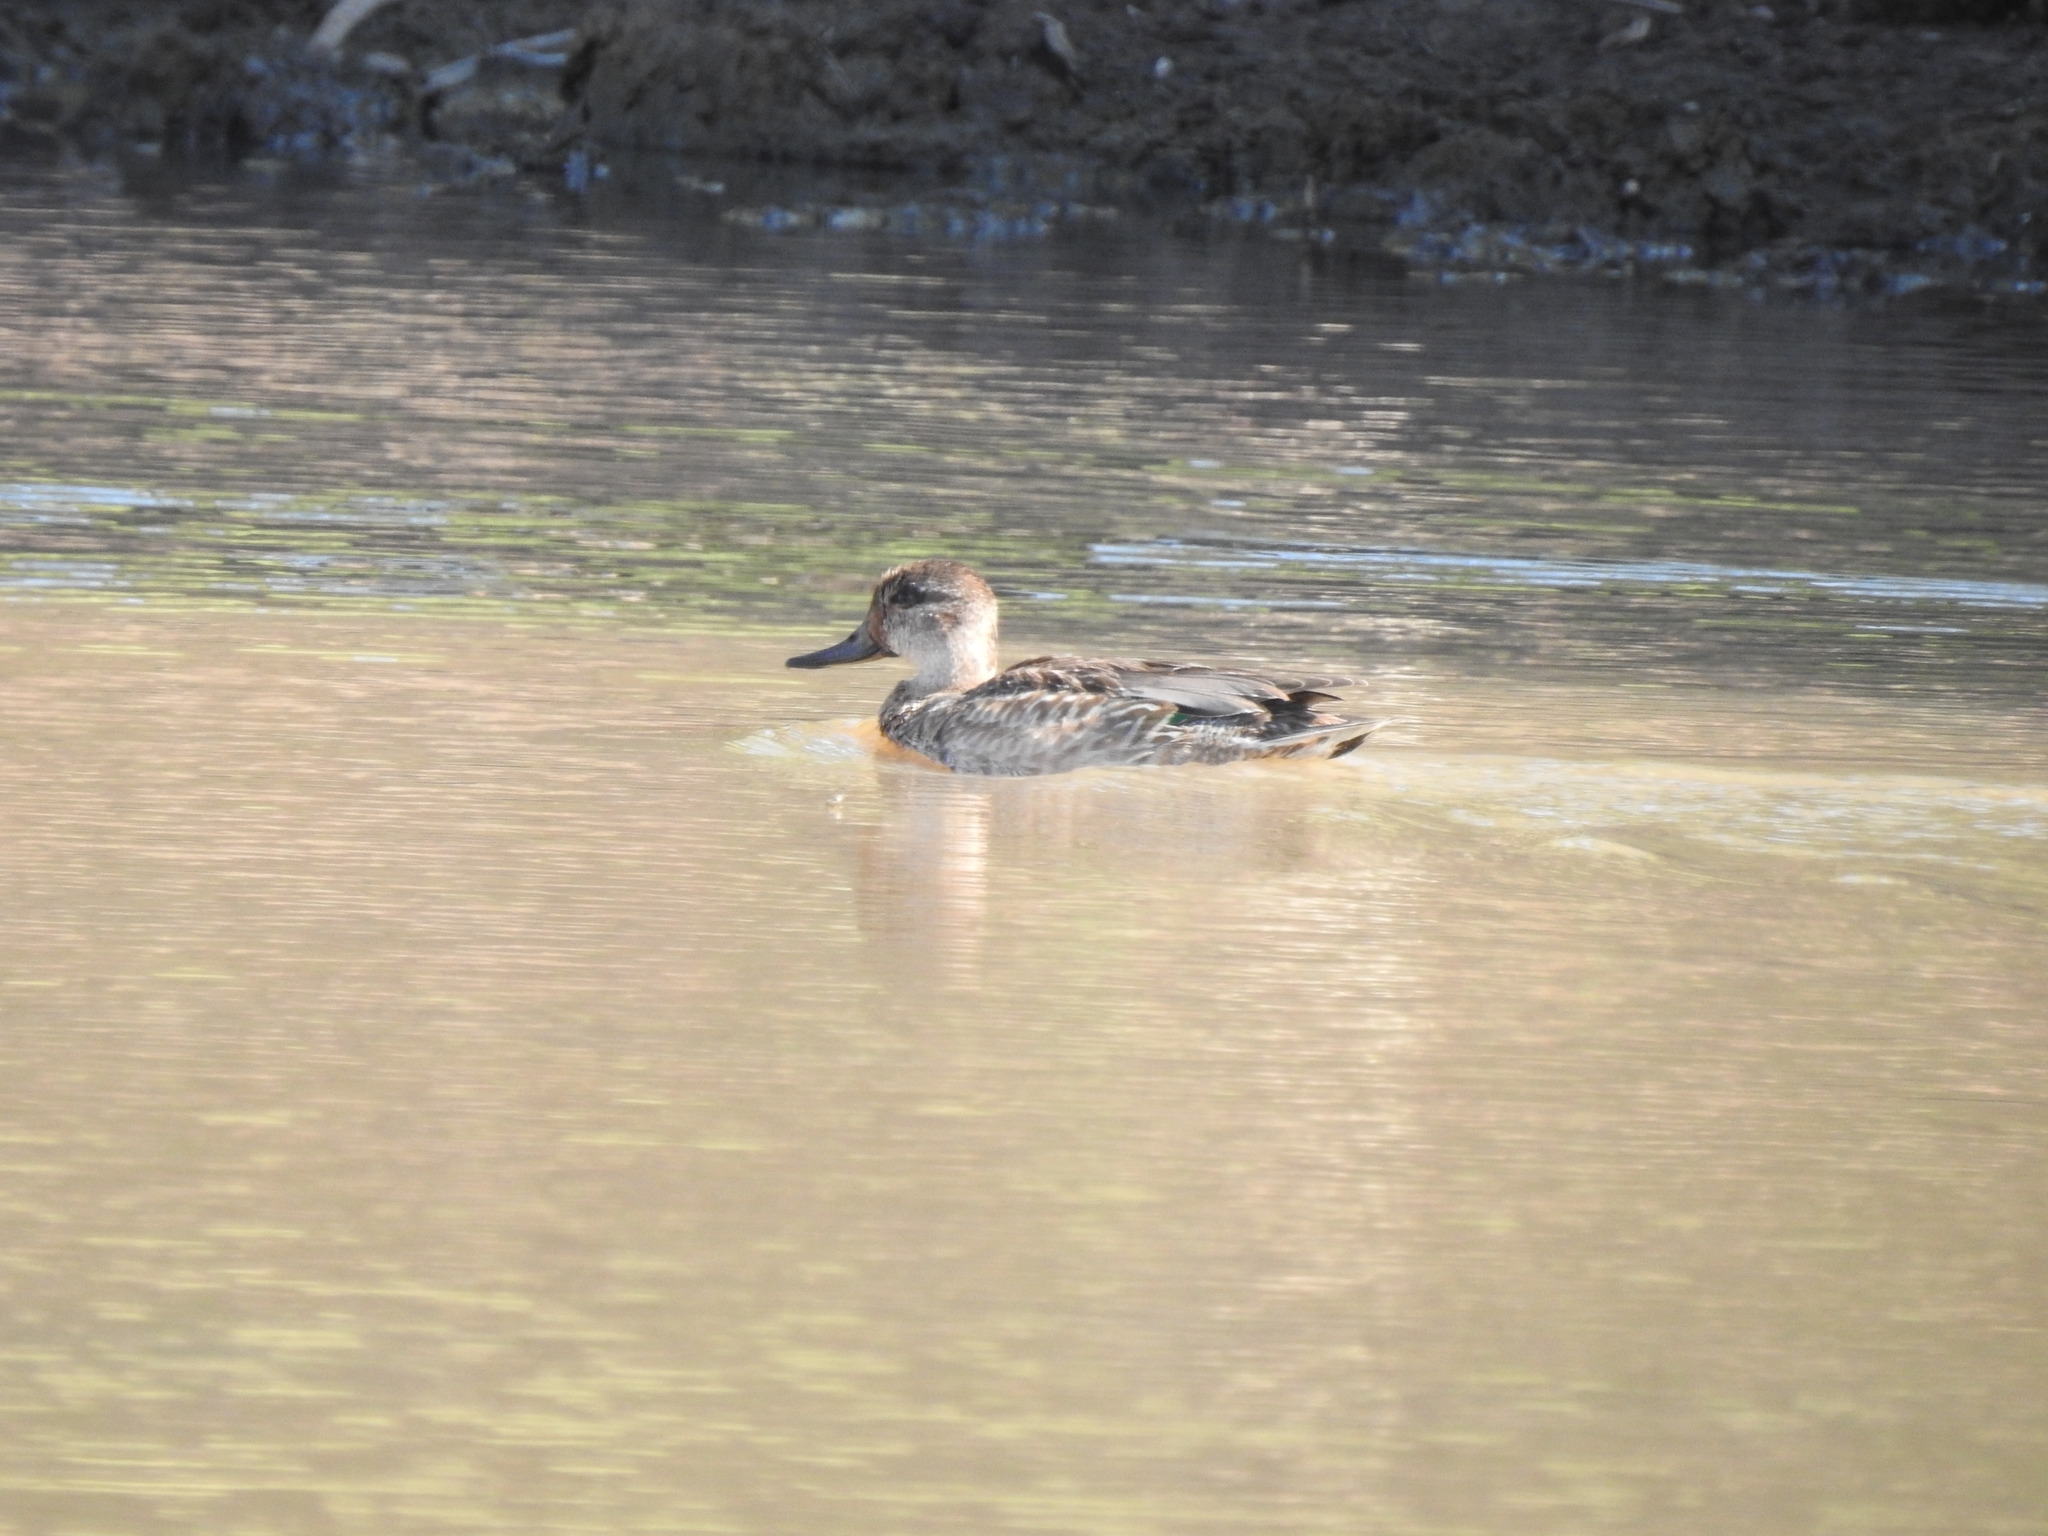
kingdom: Animalia
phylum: Chordata
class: Aves
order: Anseriformes
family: Anatidae
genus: Anas
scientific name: Anas crecca
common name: Eurasian teal
